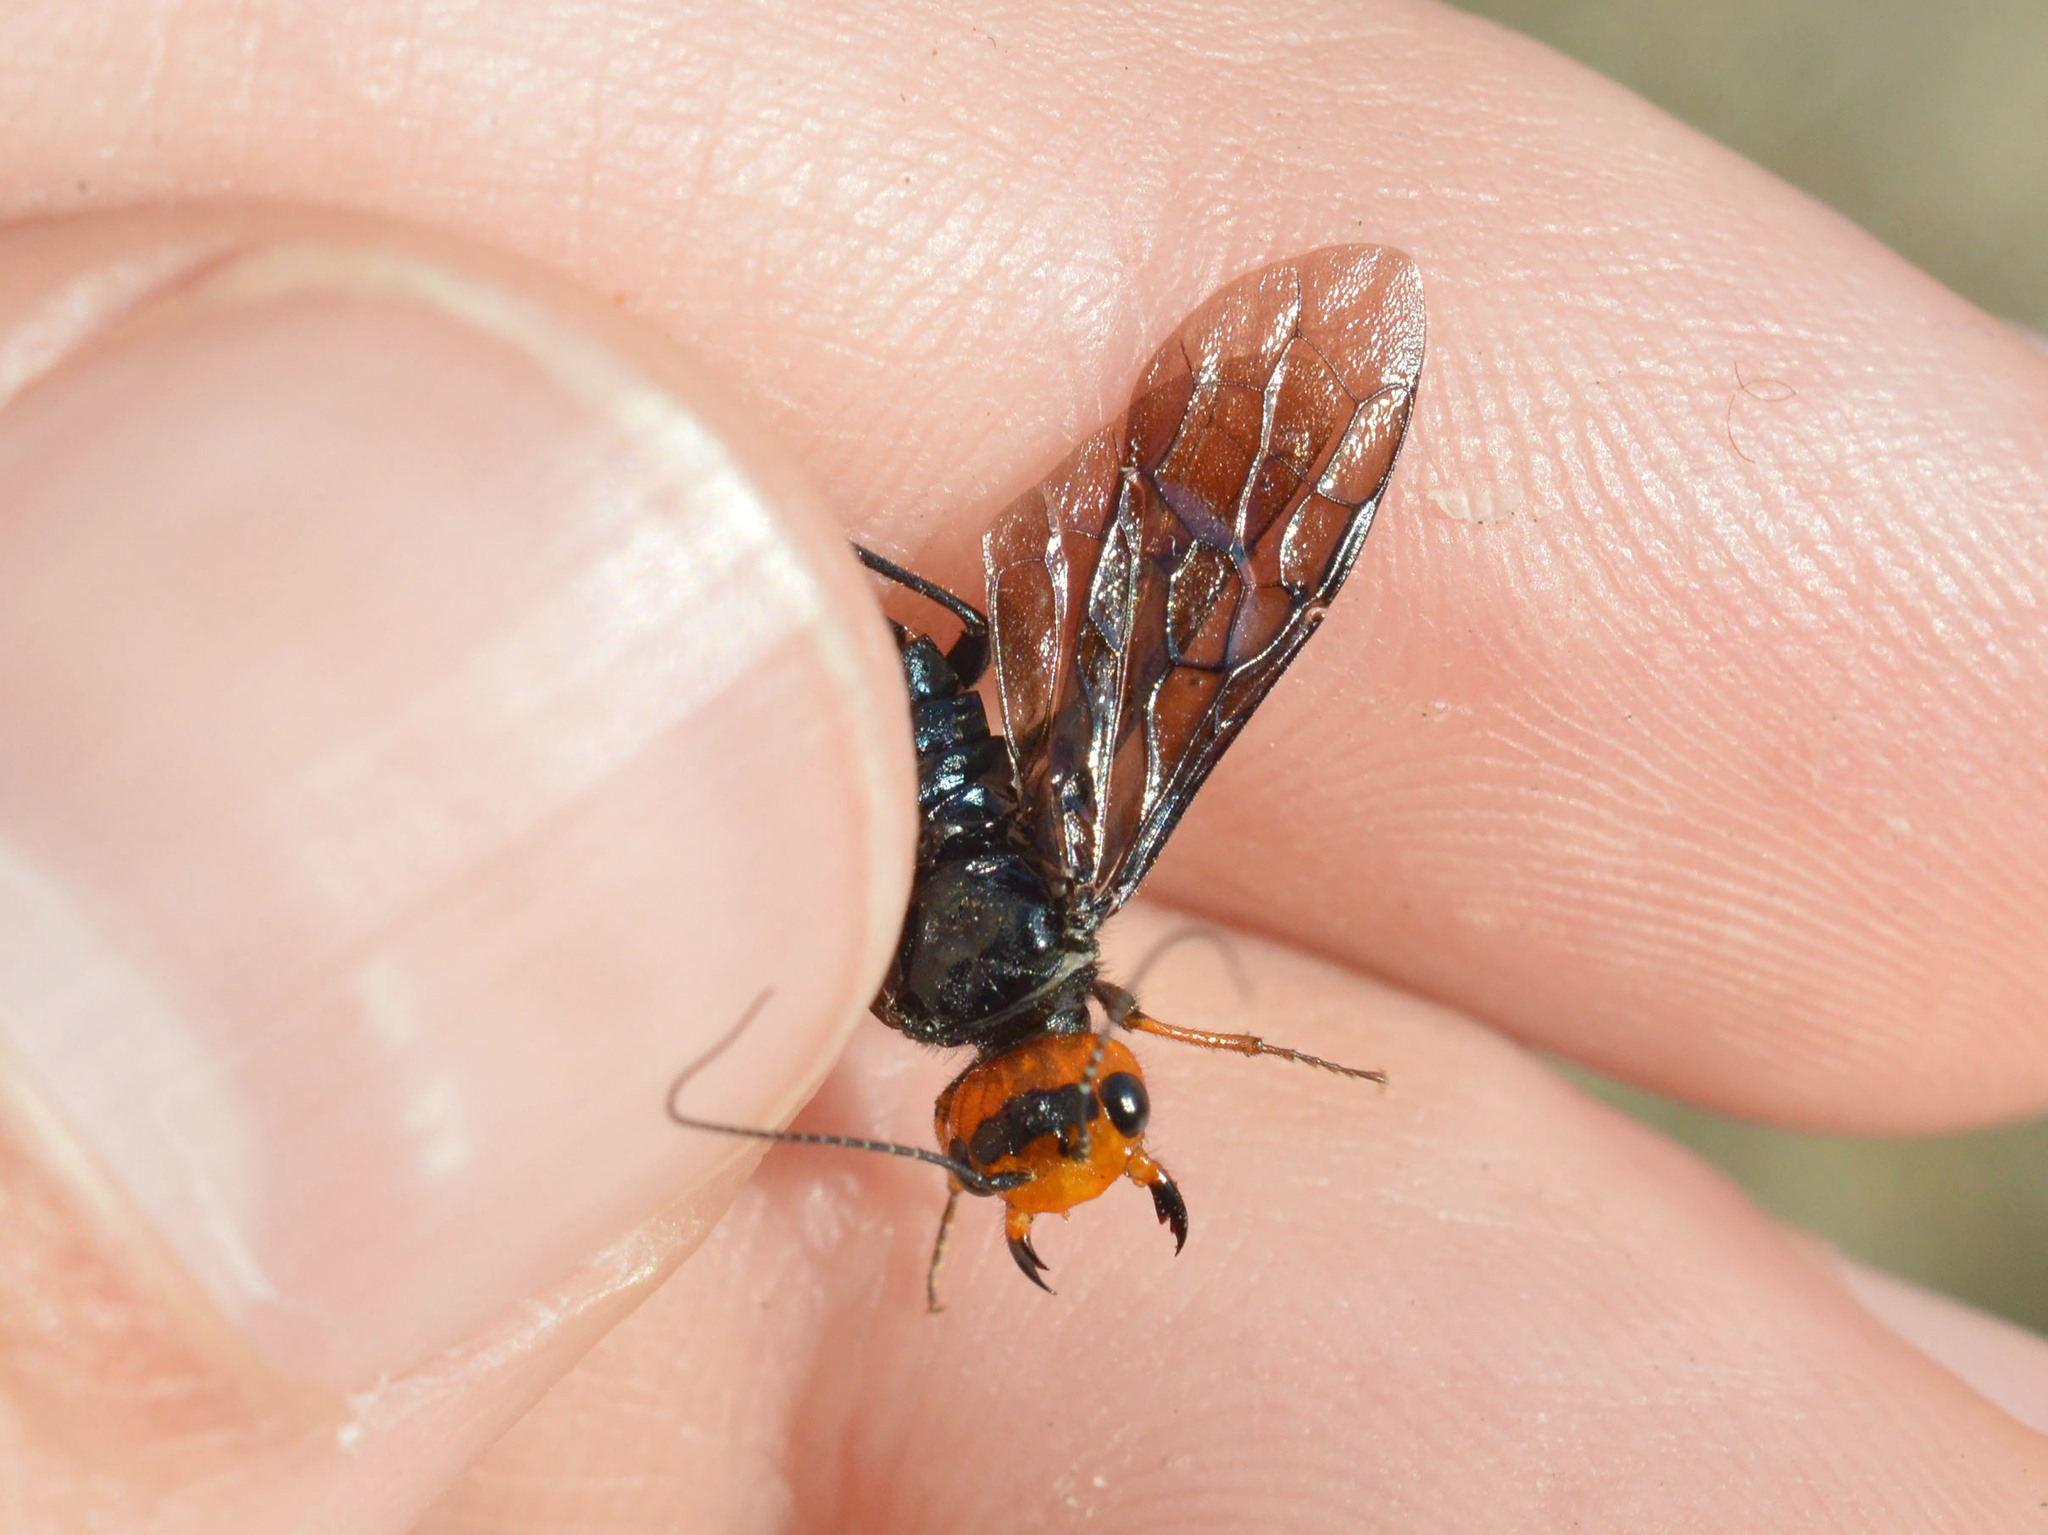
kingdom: Animalia
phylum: Arthropoda
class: Insecta
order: Hymenoptera
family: Pamphiliidae
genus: Acantholyda
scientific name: Acantholyda erythrocephala
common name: Pine false webworm
